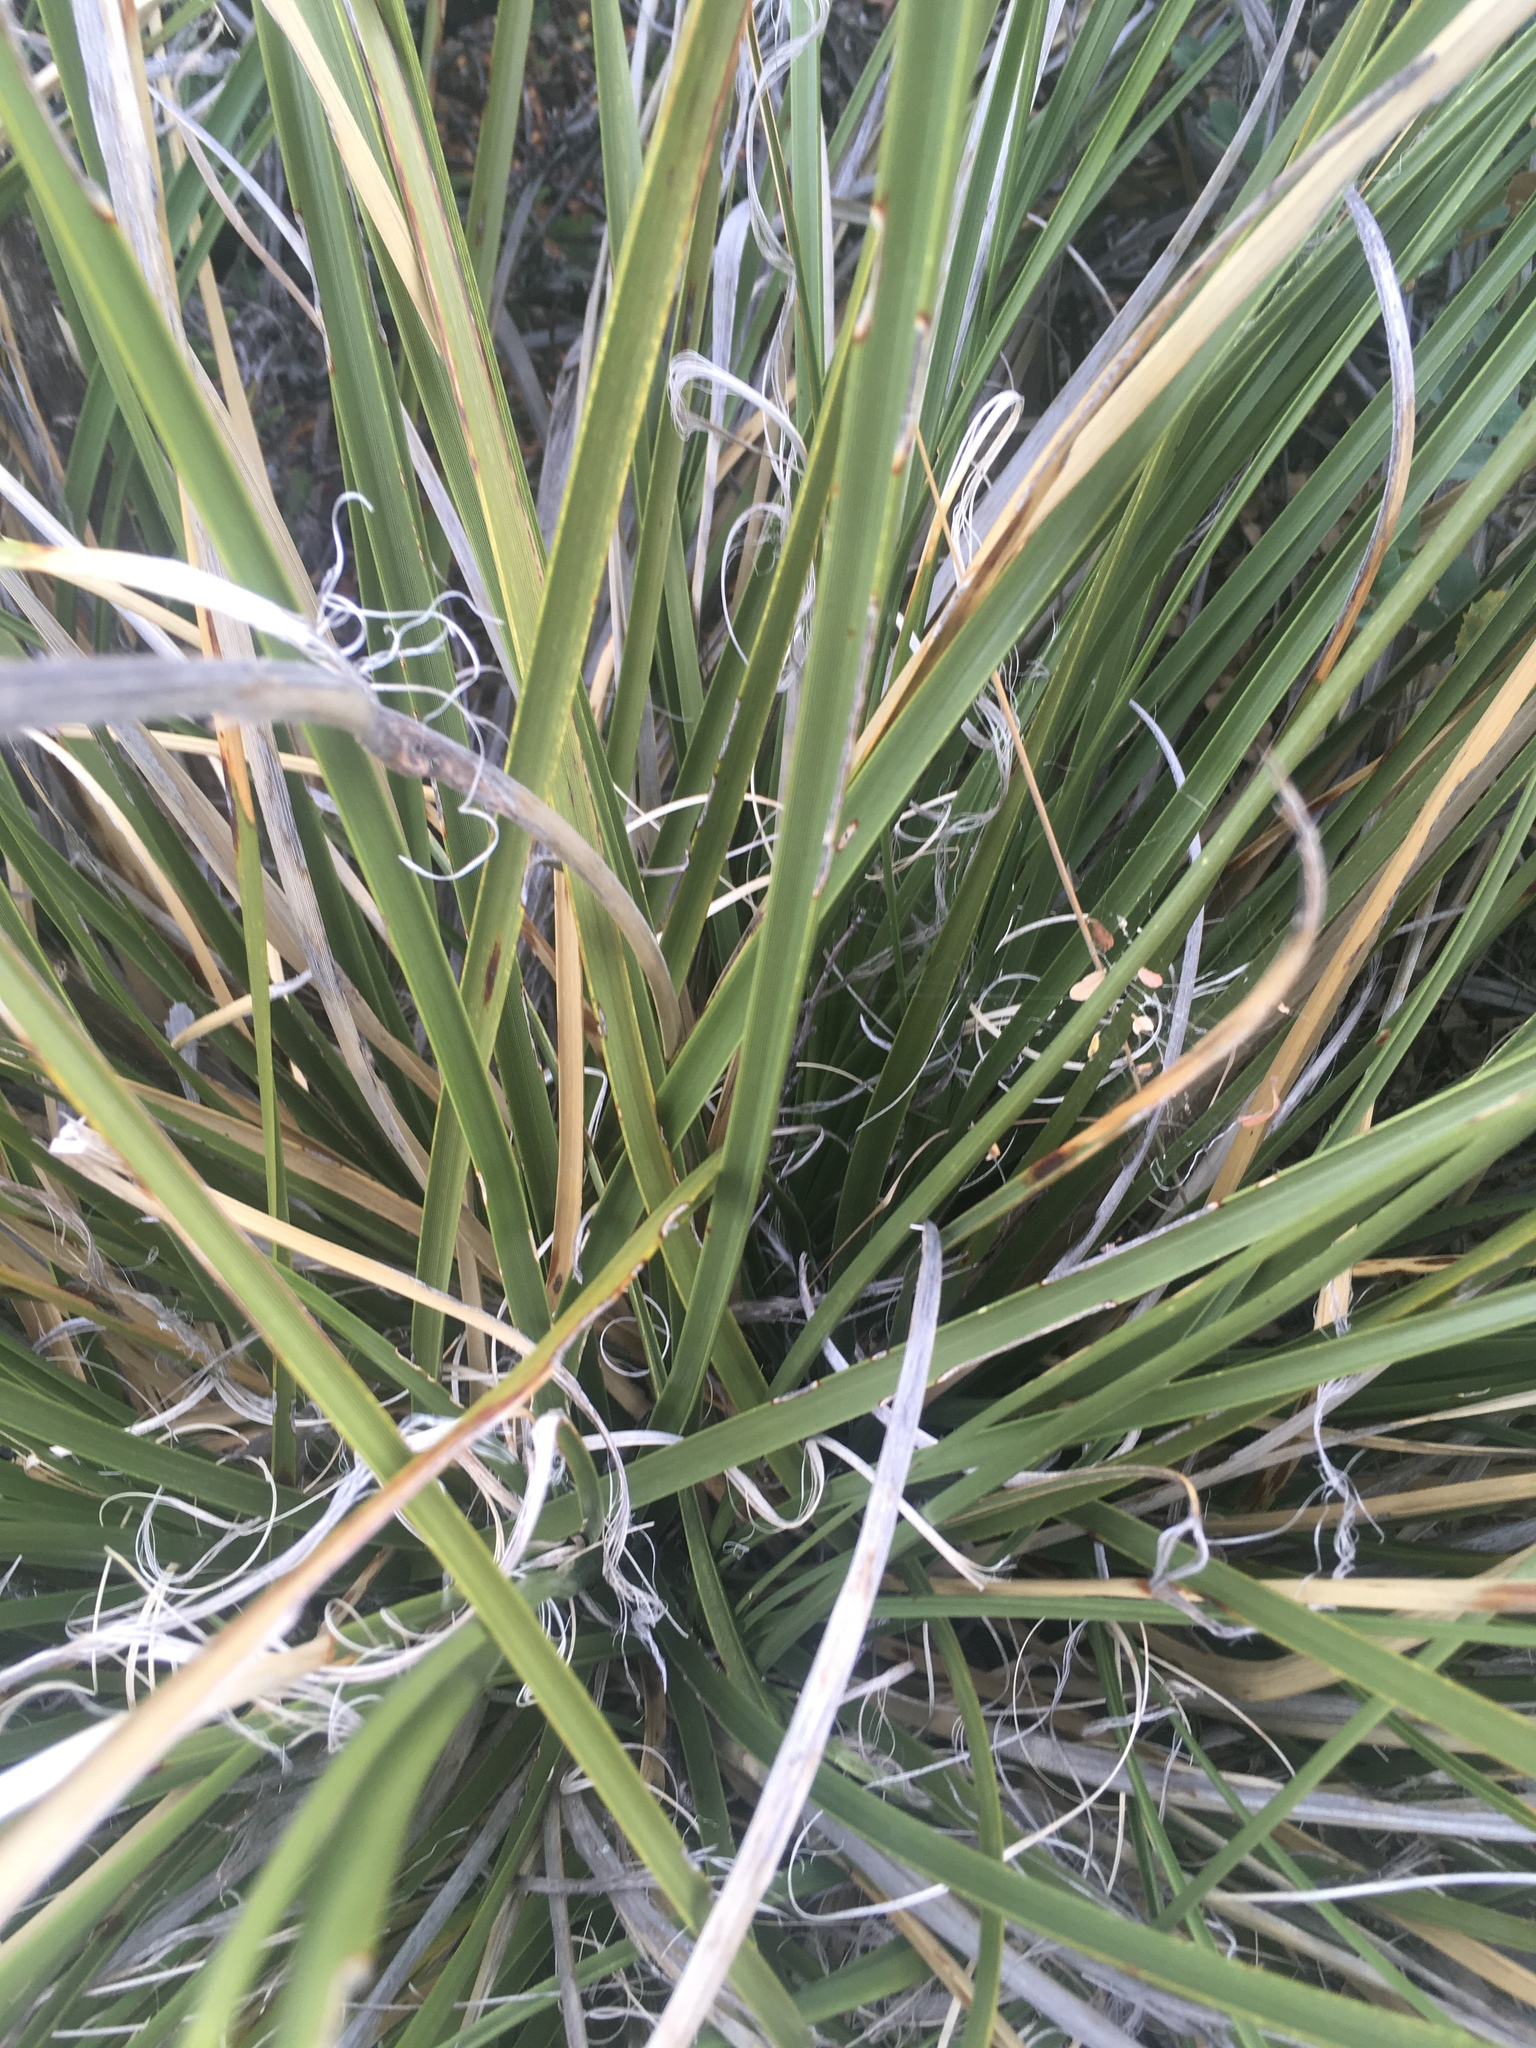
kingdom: Plantae
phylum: Tracheophyta
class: Liliopsida
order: Asparagales
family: Asparagaceae
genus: Nolina
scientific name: Nolina microcarpa
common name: Bear-grass
